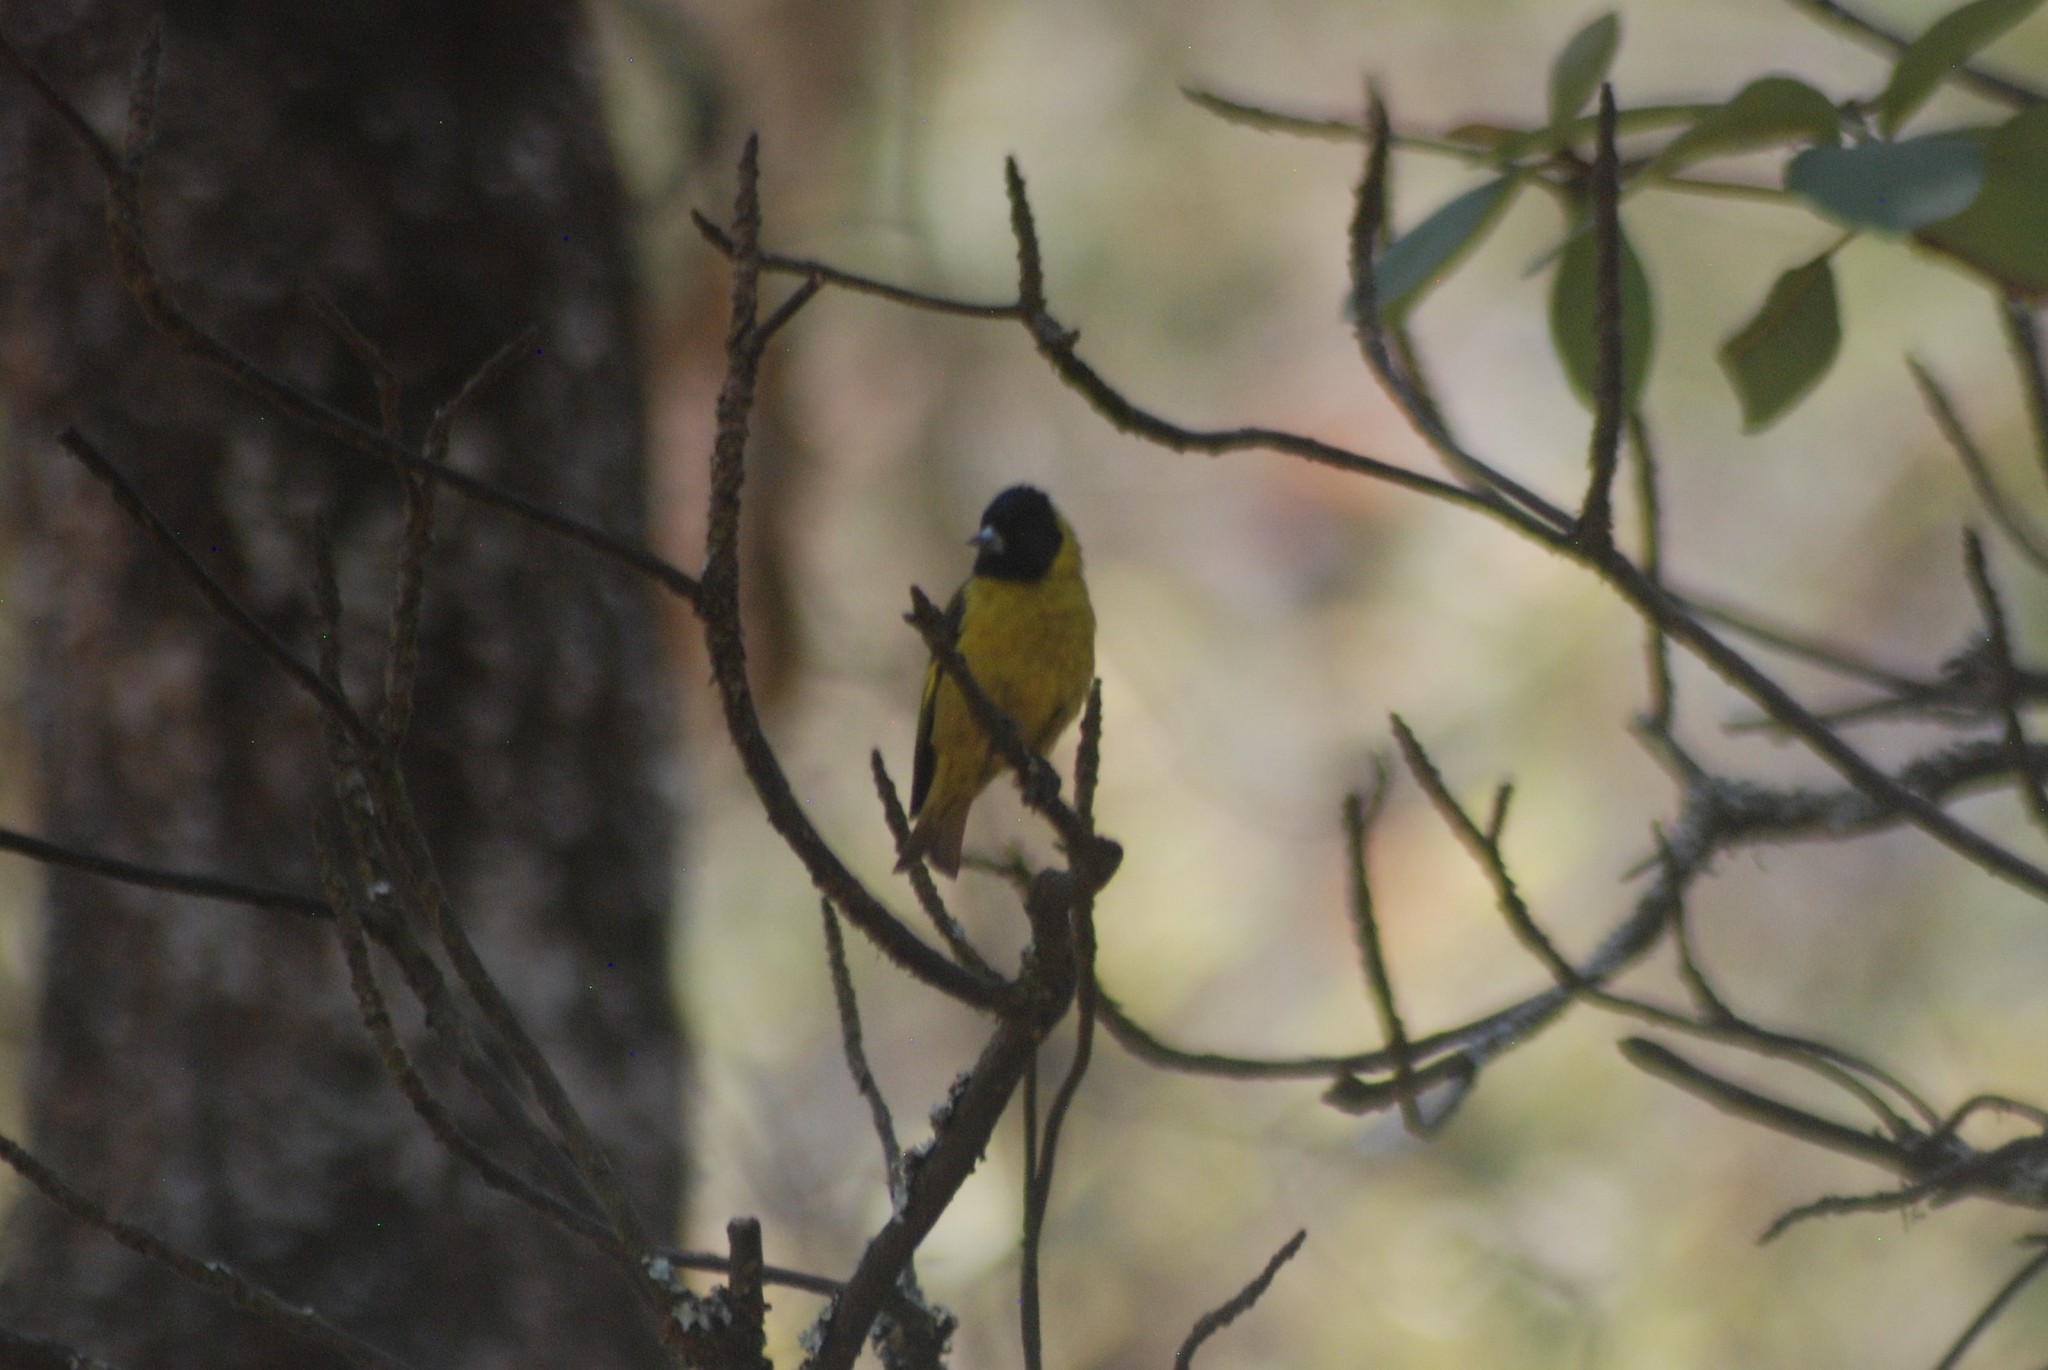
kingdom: Animalia
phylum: Chordata
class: Aves
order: Passeriformes
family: Fringillidae
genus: Spinus
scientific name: Spinus notatus
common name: Black-headed siskin
